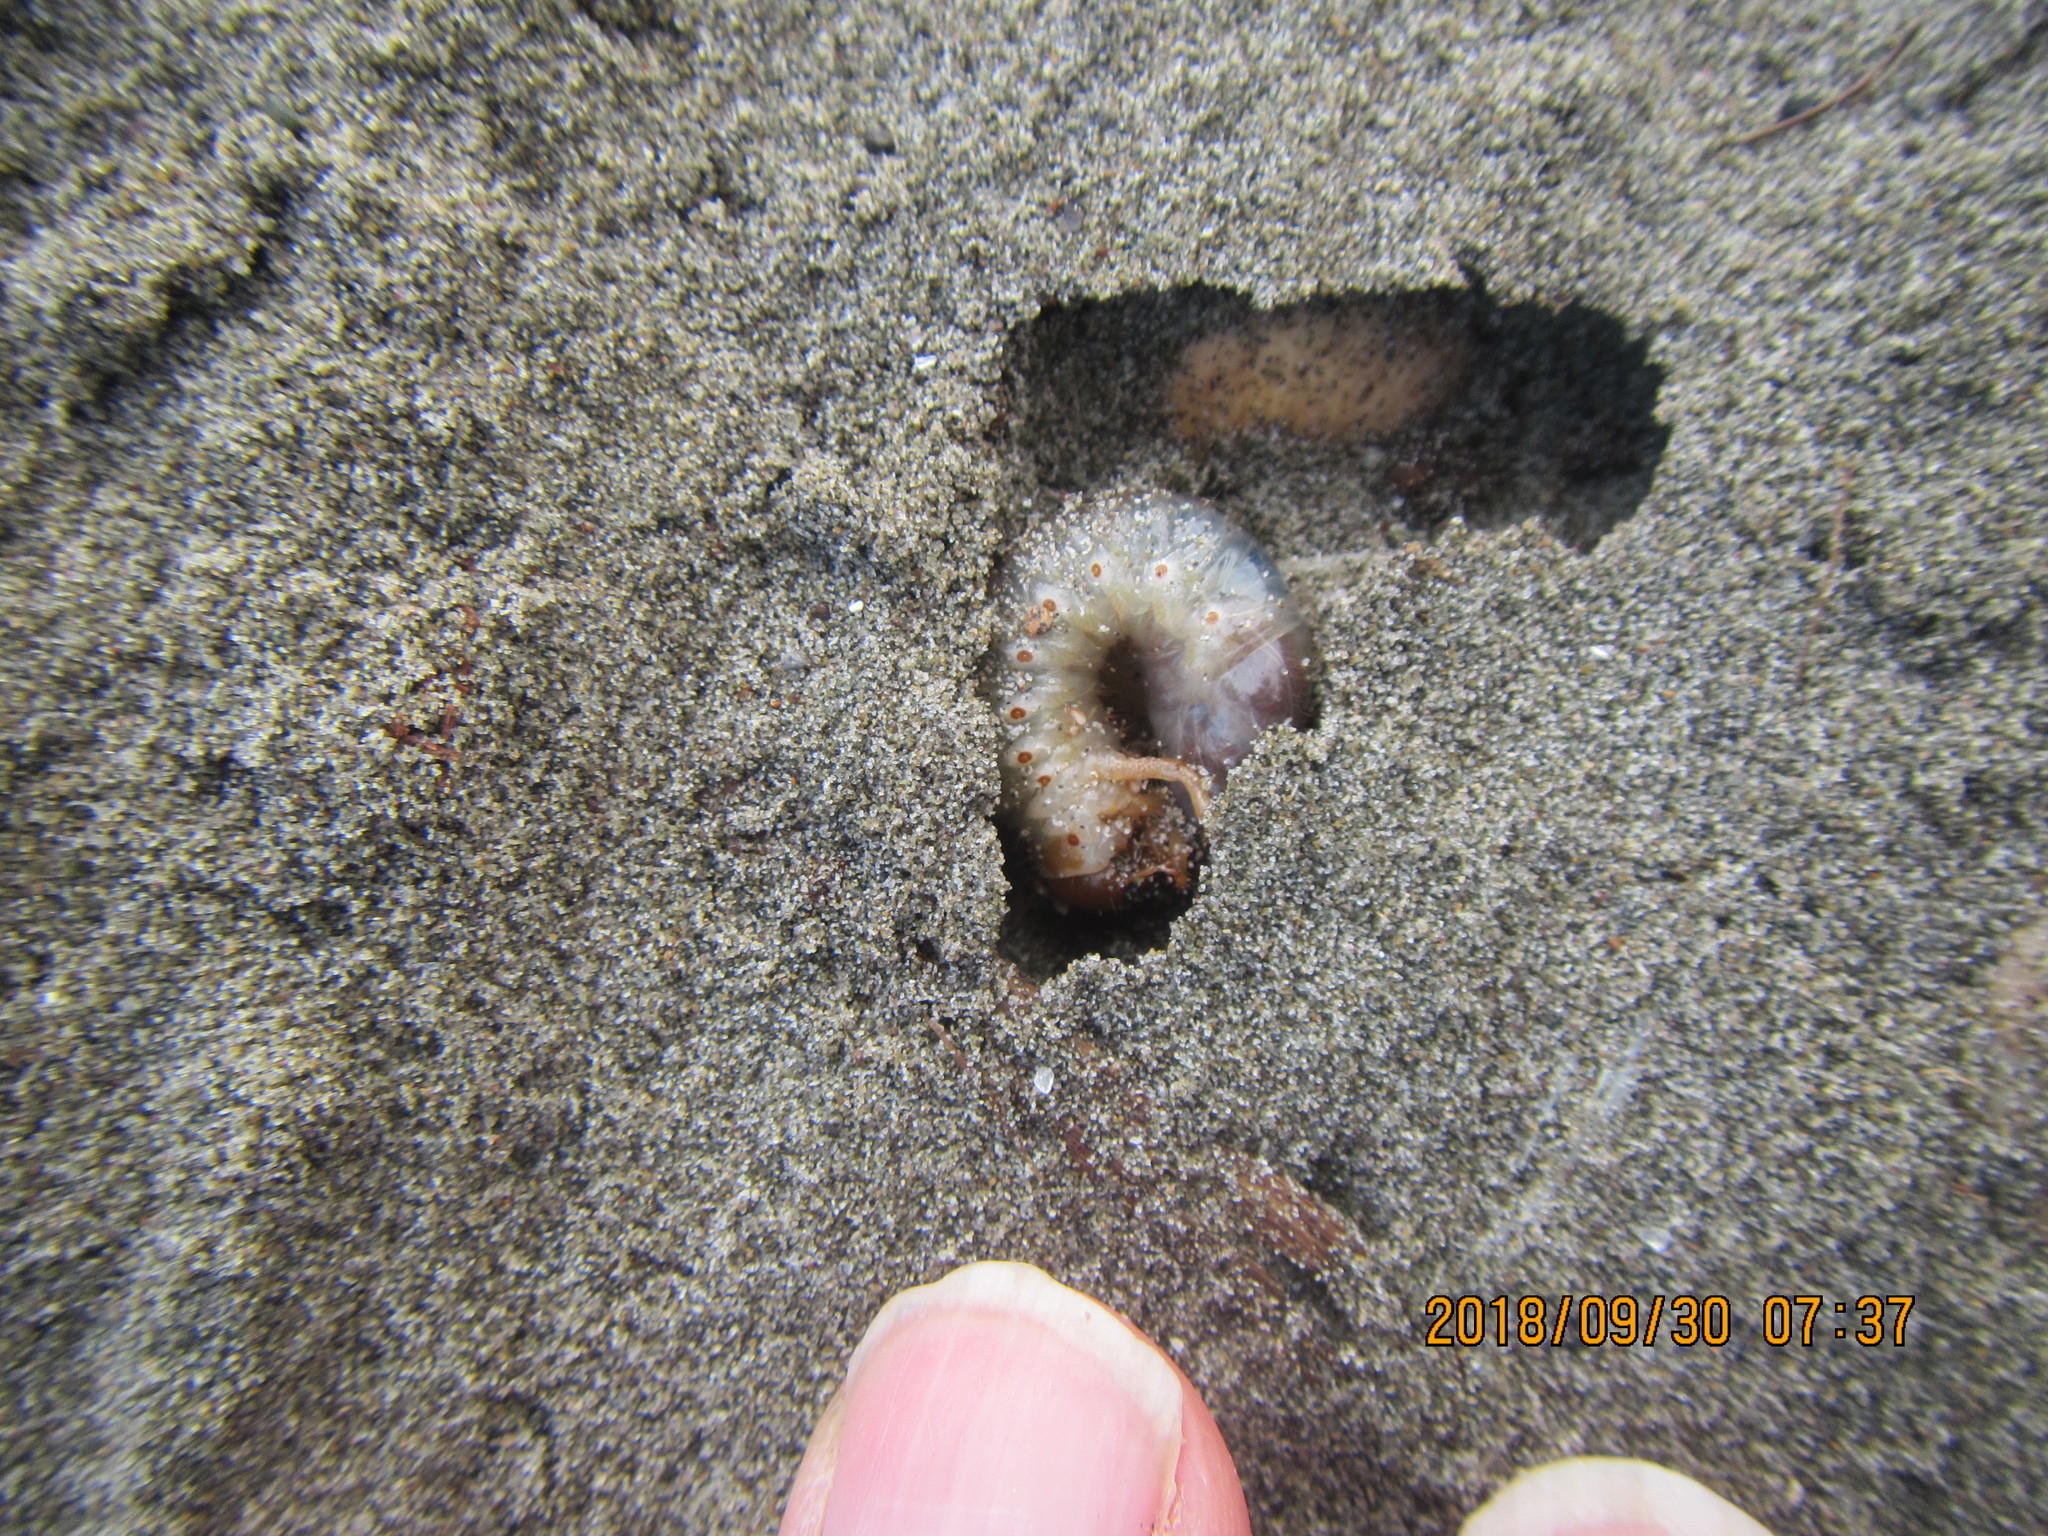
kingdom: Animalia
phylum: Arthropoda
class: Insecta
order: Coleoptera
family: Scarabaeidae
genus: Pericoptus
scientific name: Pericoptus truncatus
